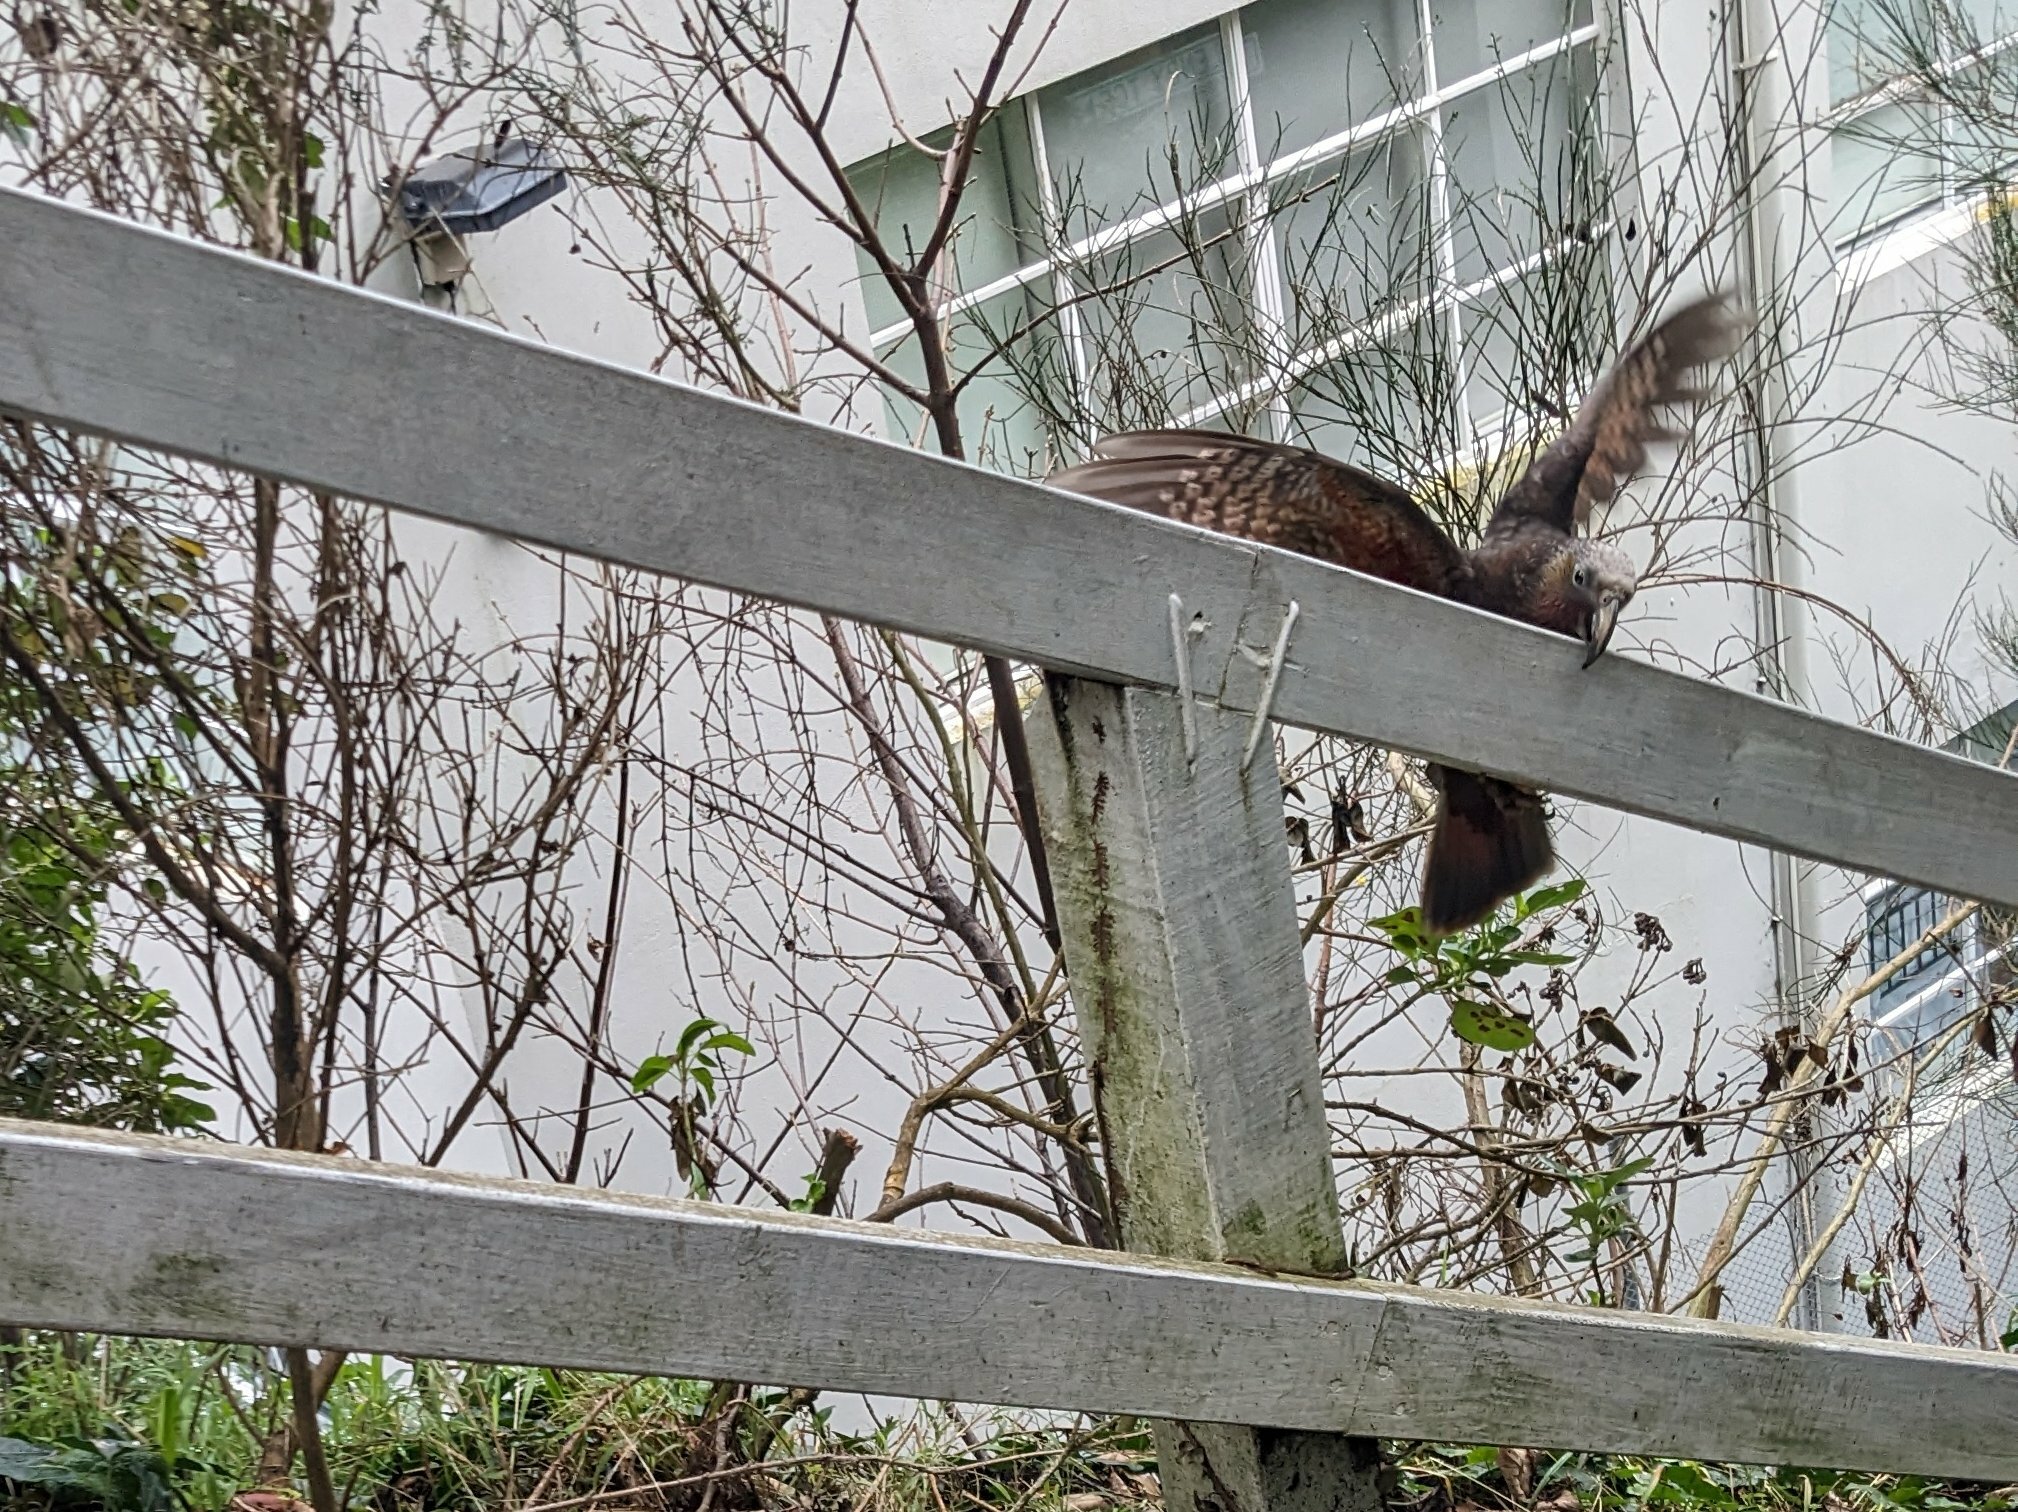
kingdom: Animalia
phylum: Chordata
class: Aves
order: Psittaciformes
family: Psittacidae
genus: Nestor
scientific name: Nestor meridionalis
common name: New zealand kaka
